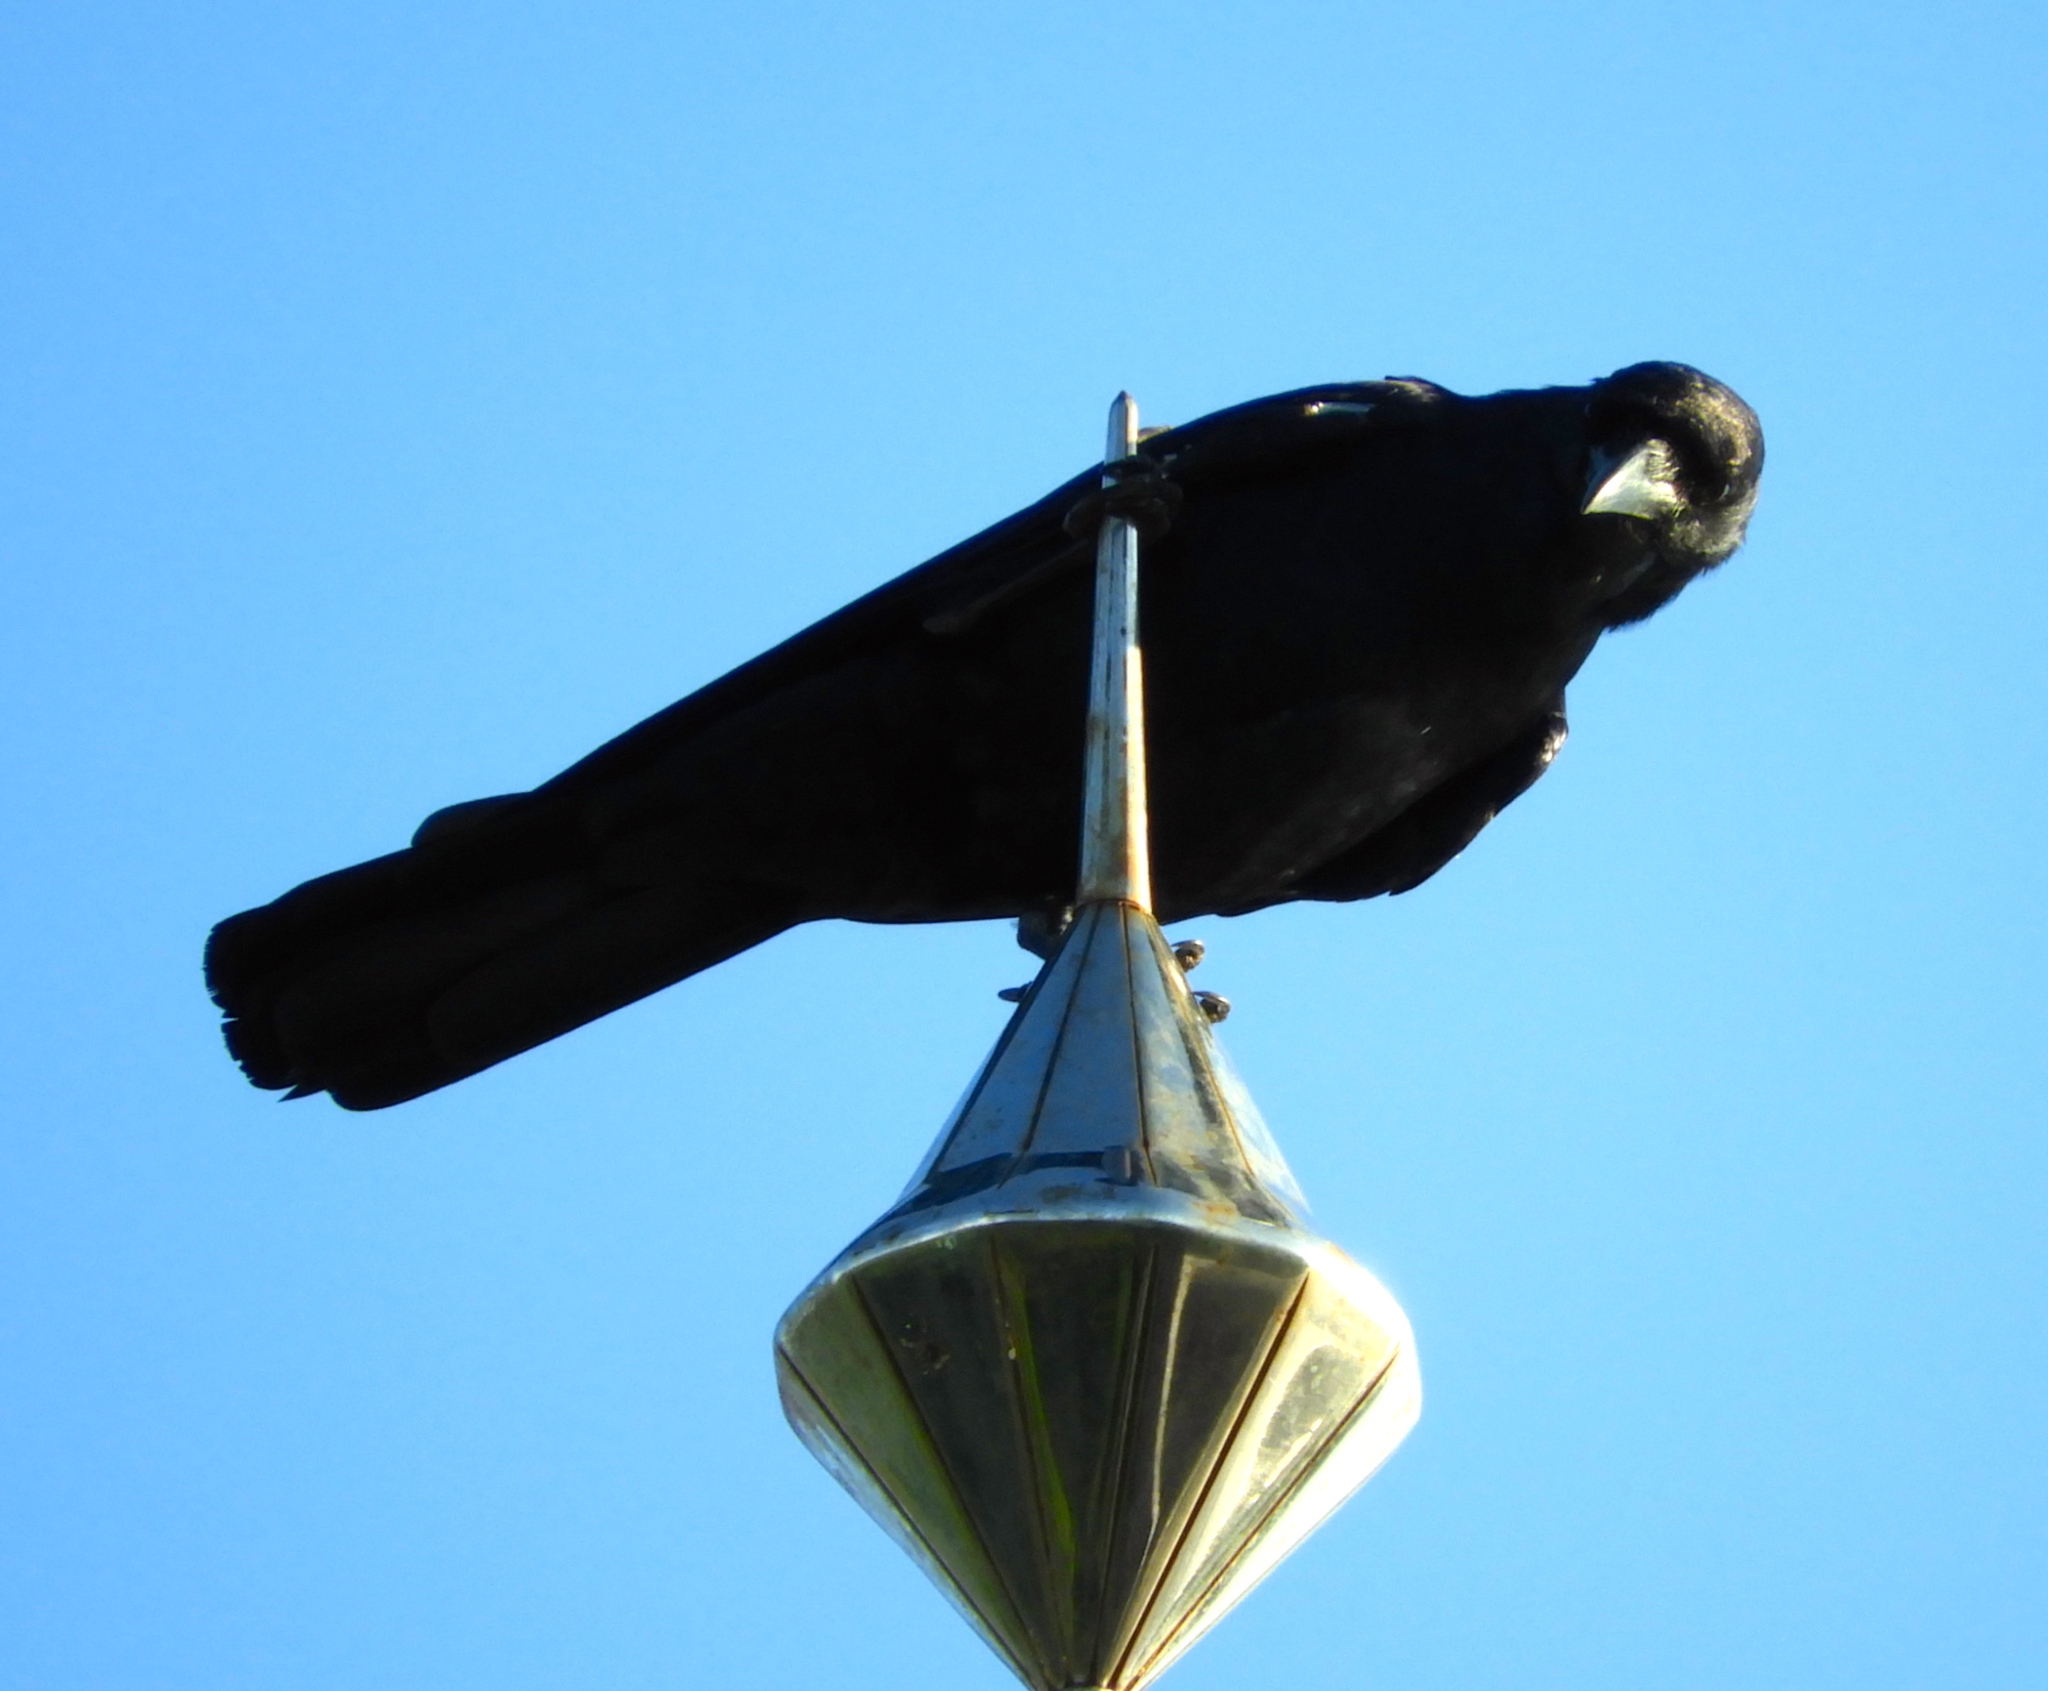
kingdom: Animalia
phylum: Chordata
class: Aves
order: Passeriformes
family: Corvidae
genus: Corvus
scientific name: Corvus sinaloae
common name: Sinaloa crow
